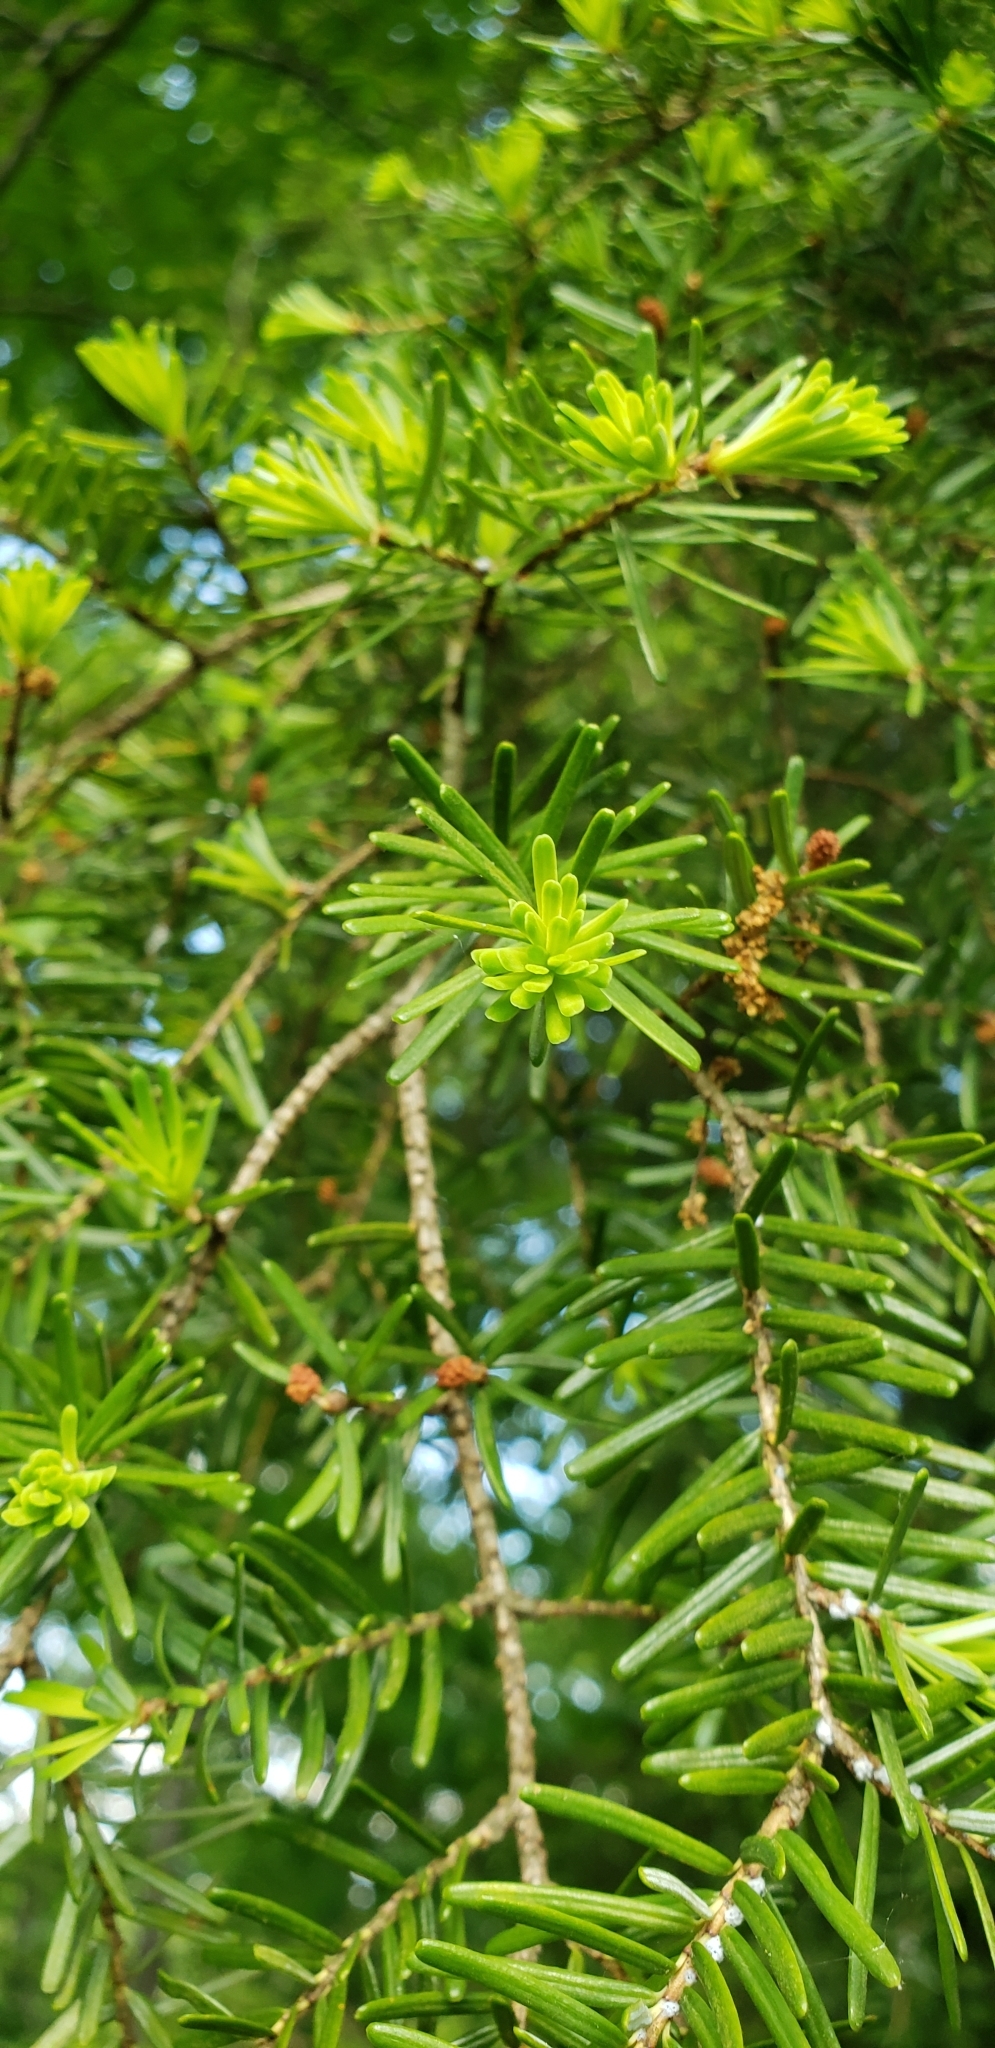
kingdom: Plantae
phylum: Tracheophyta
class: Pinopsida
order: Pinales
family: Pinaceae
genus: Tsuga
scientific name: Tsuga caroliniana
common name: Carolina hemlock
